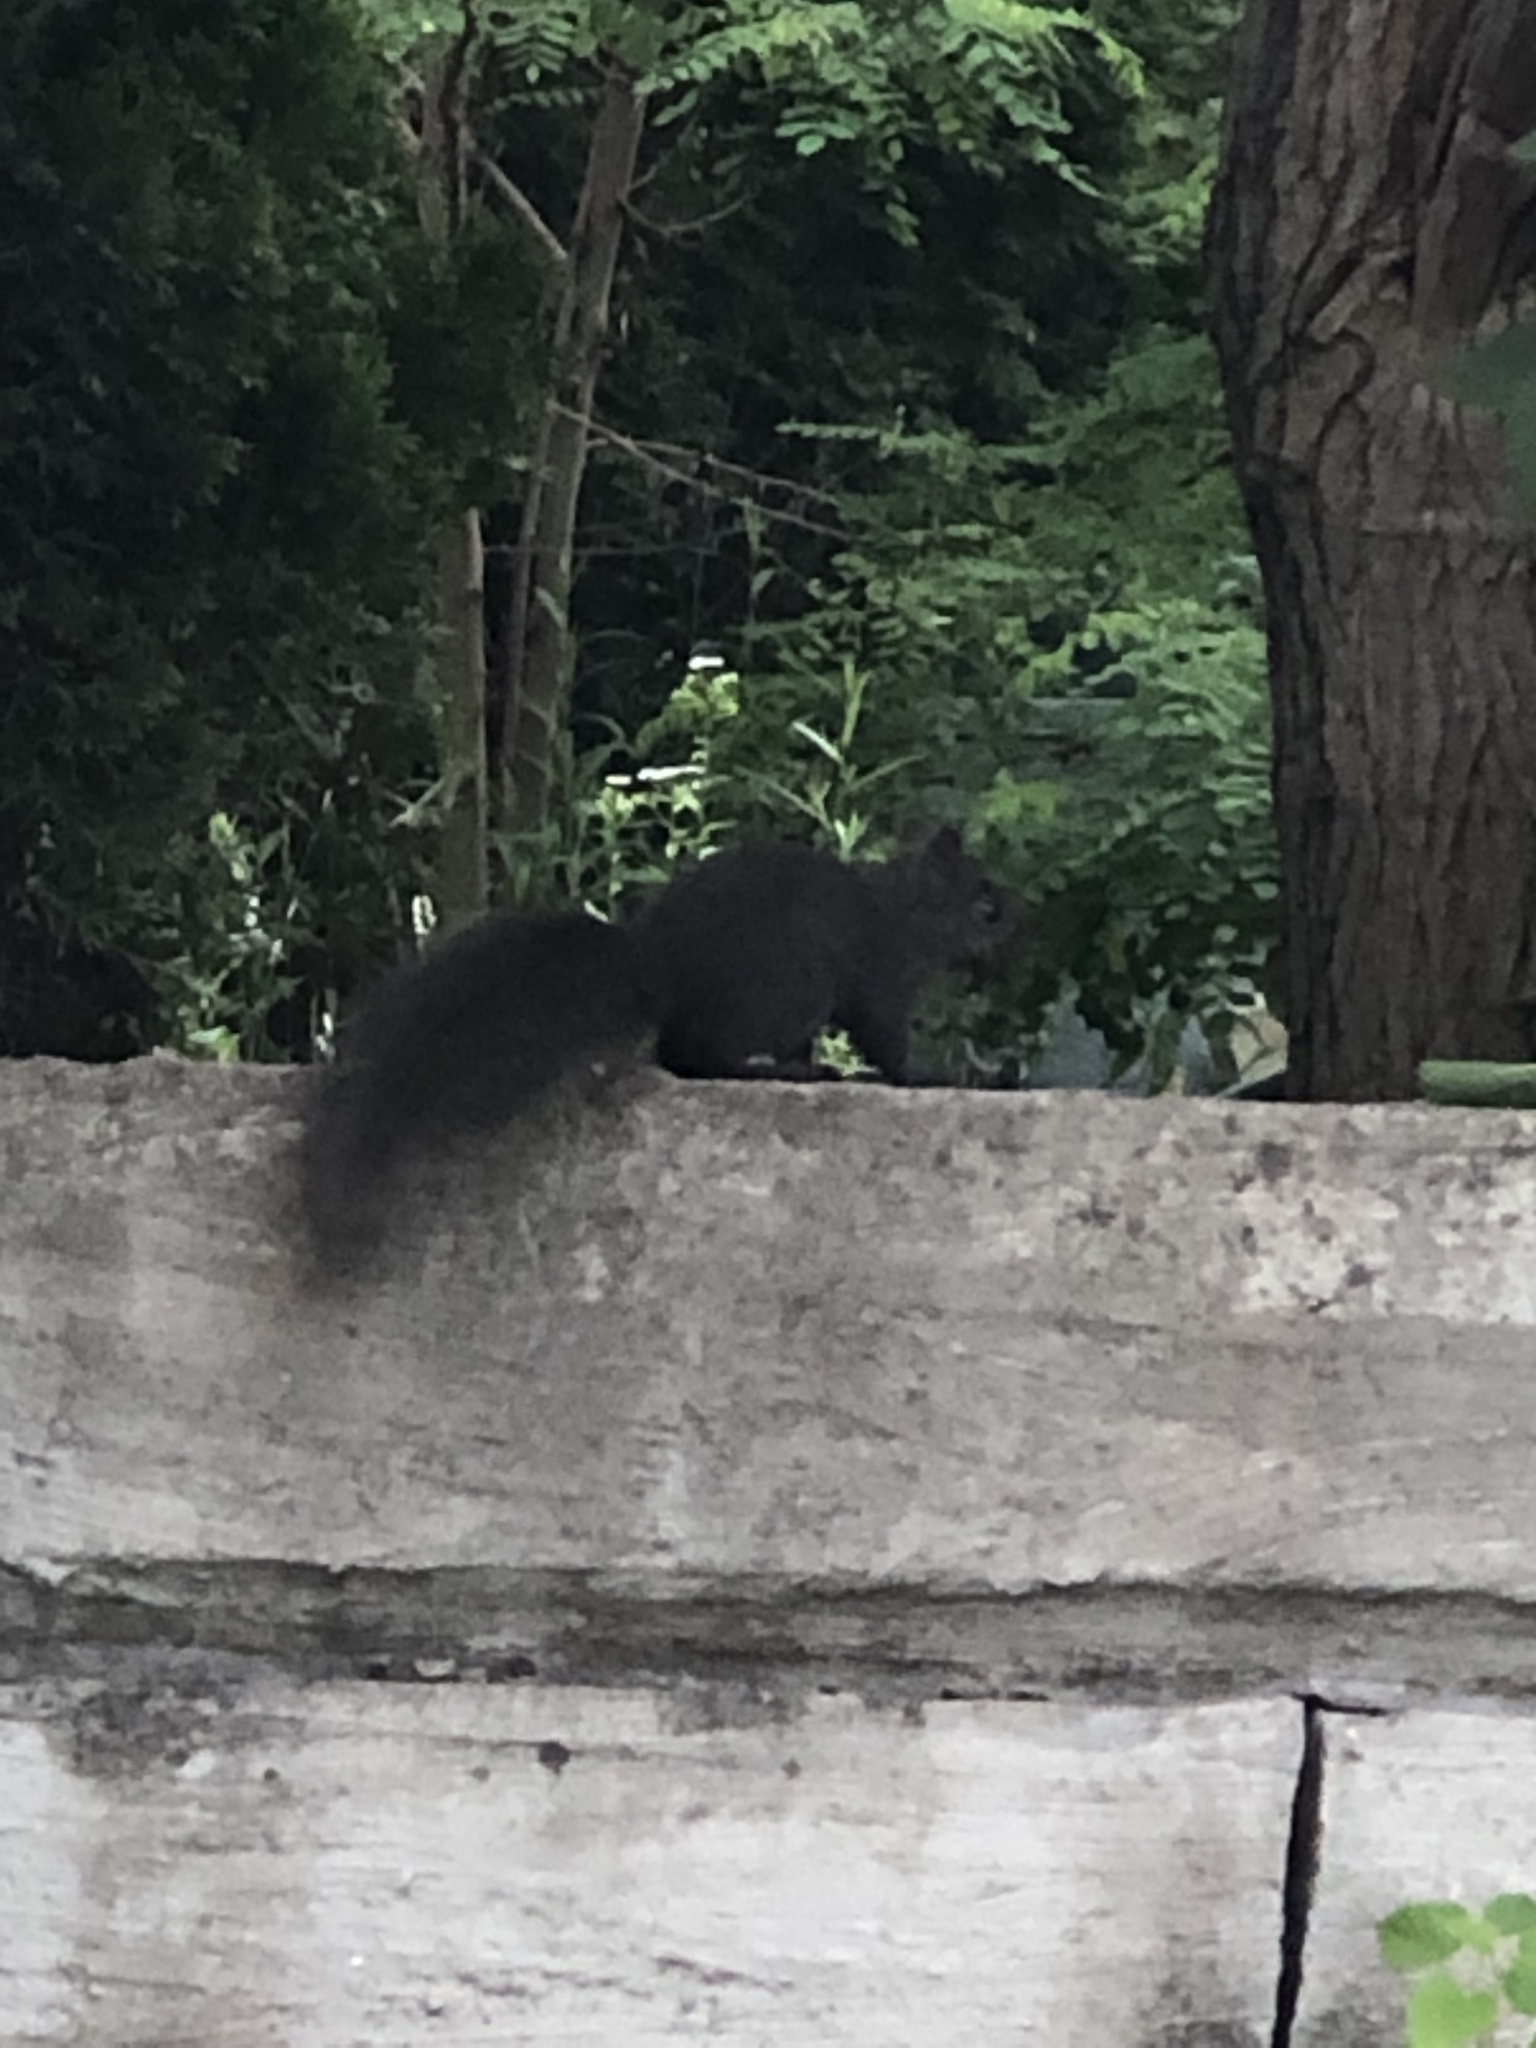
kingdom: Animalia
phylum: Chordata
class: Mammalia
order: Rodentia
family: Sciuridae
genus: Sciurus
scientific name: Sciurus carolinensis
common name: Eastern gray squirrel
